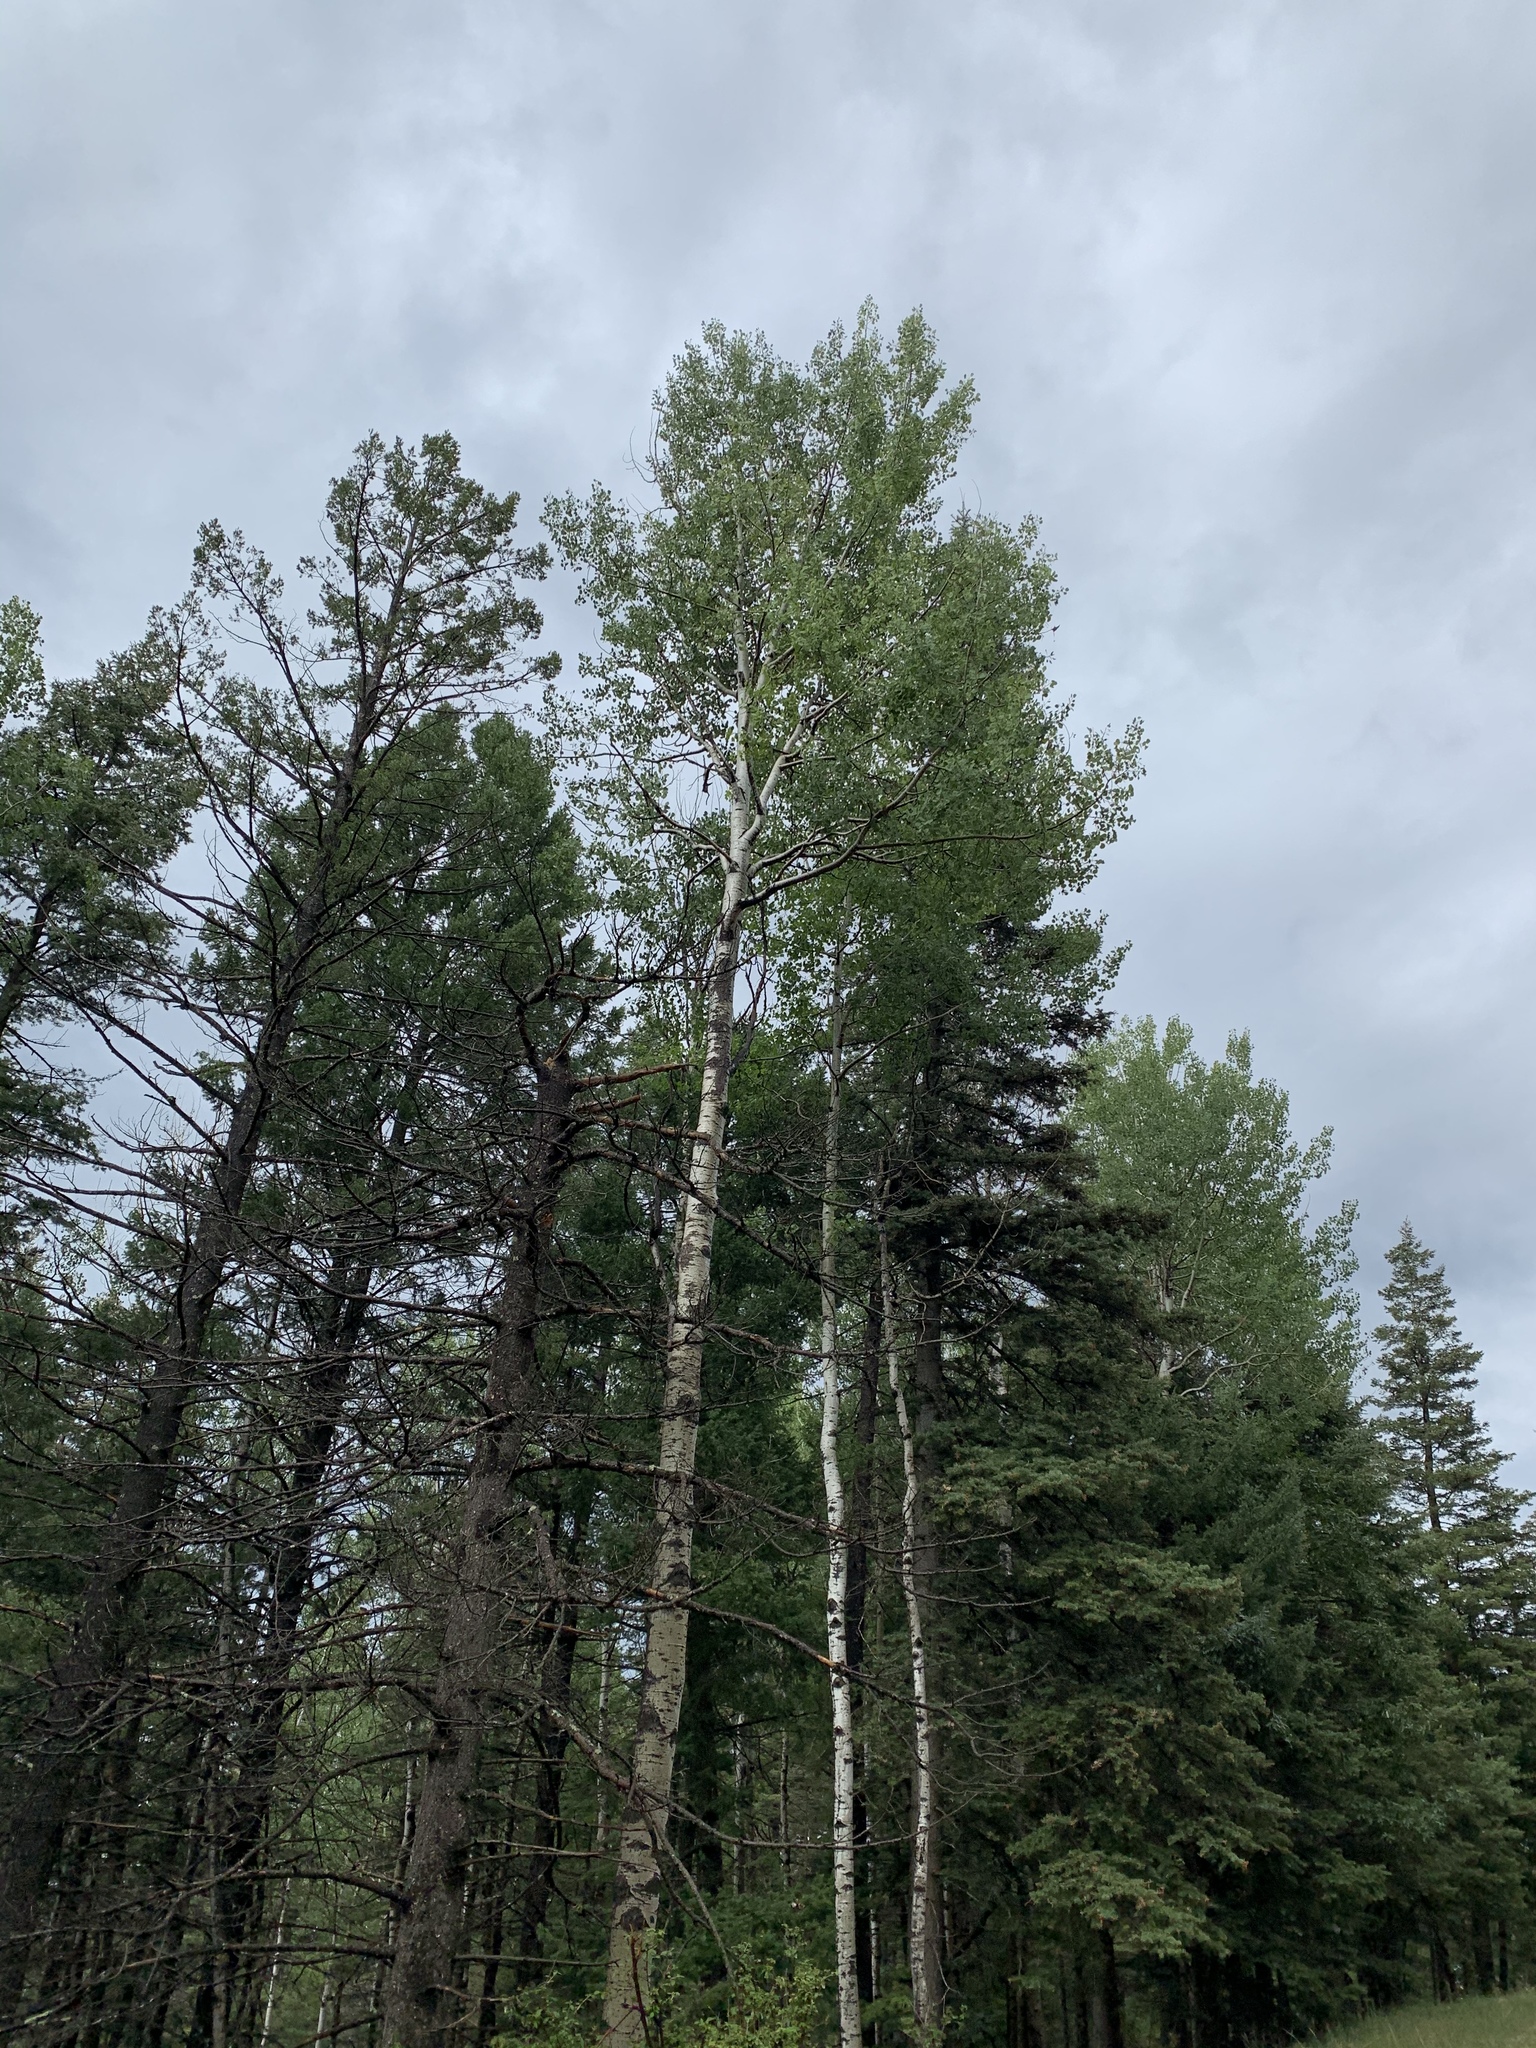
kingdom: Plantae
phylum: Tracheophyta
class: Magnoliopsida
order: Malpighiales
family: Salicaceae
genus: Populus
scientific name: Populus tremuloides
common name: Quaking aspen
